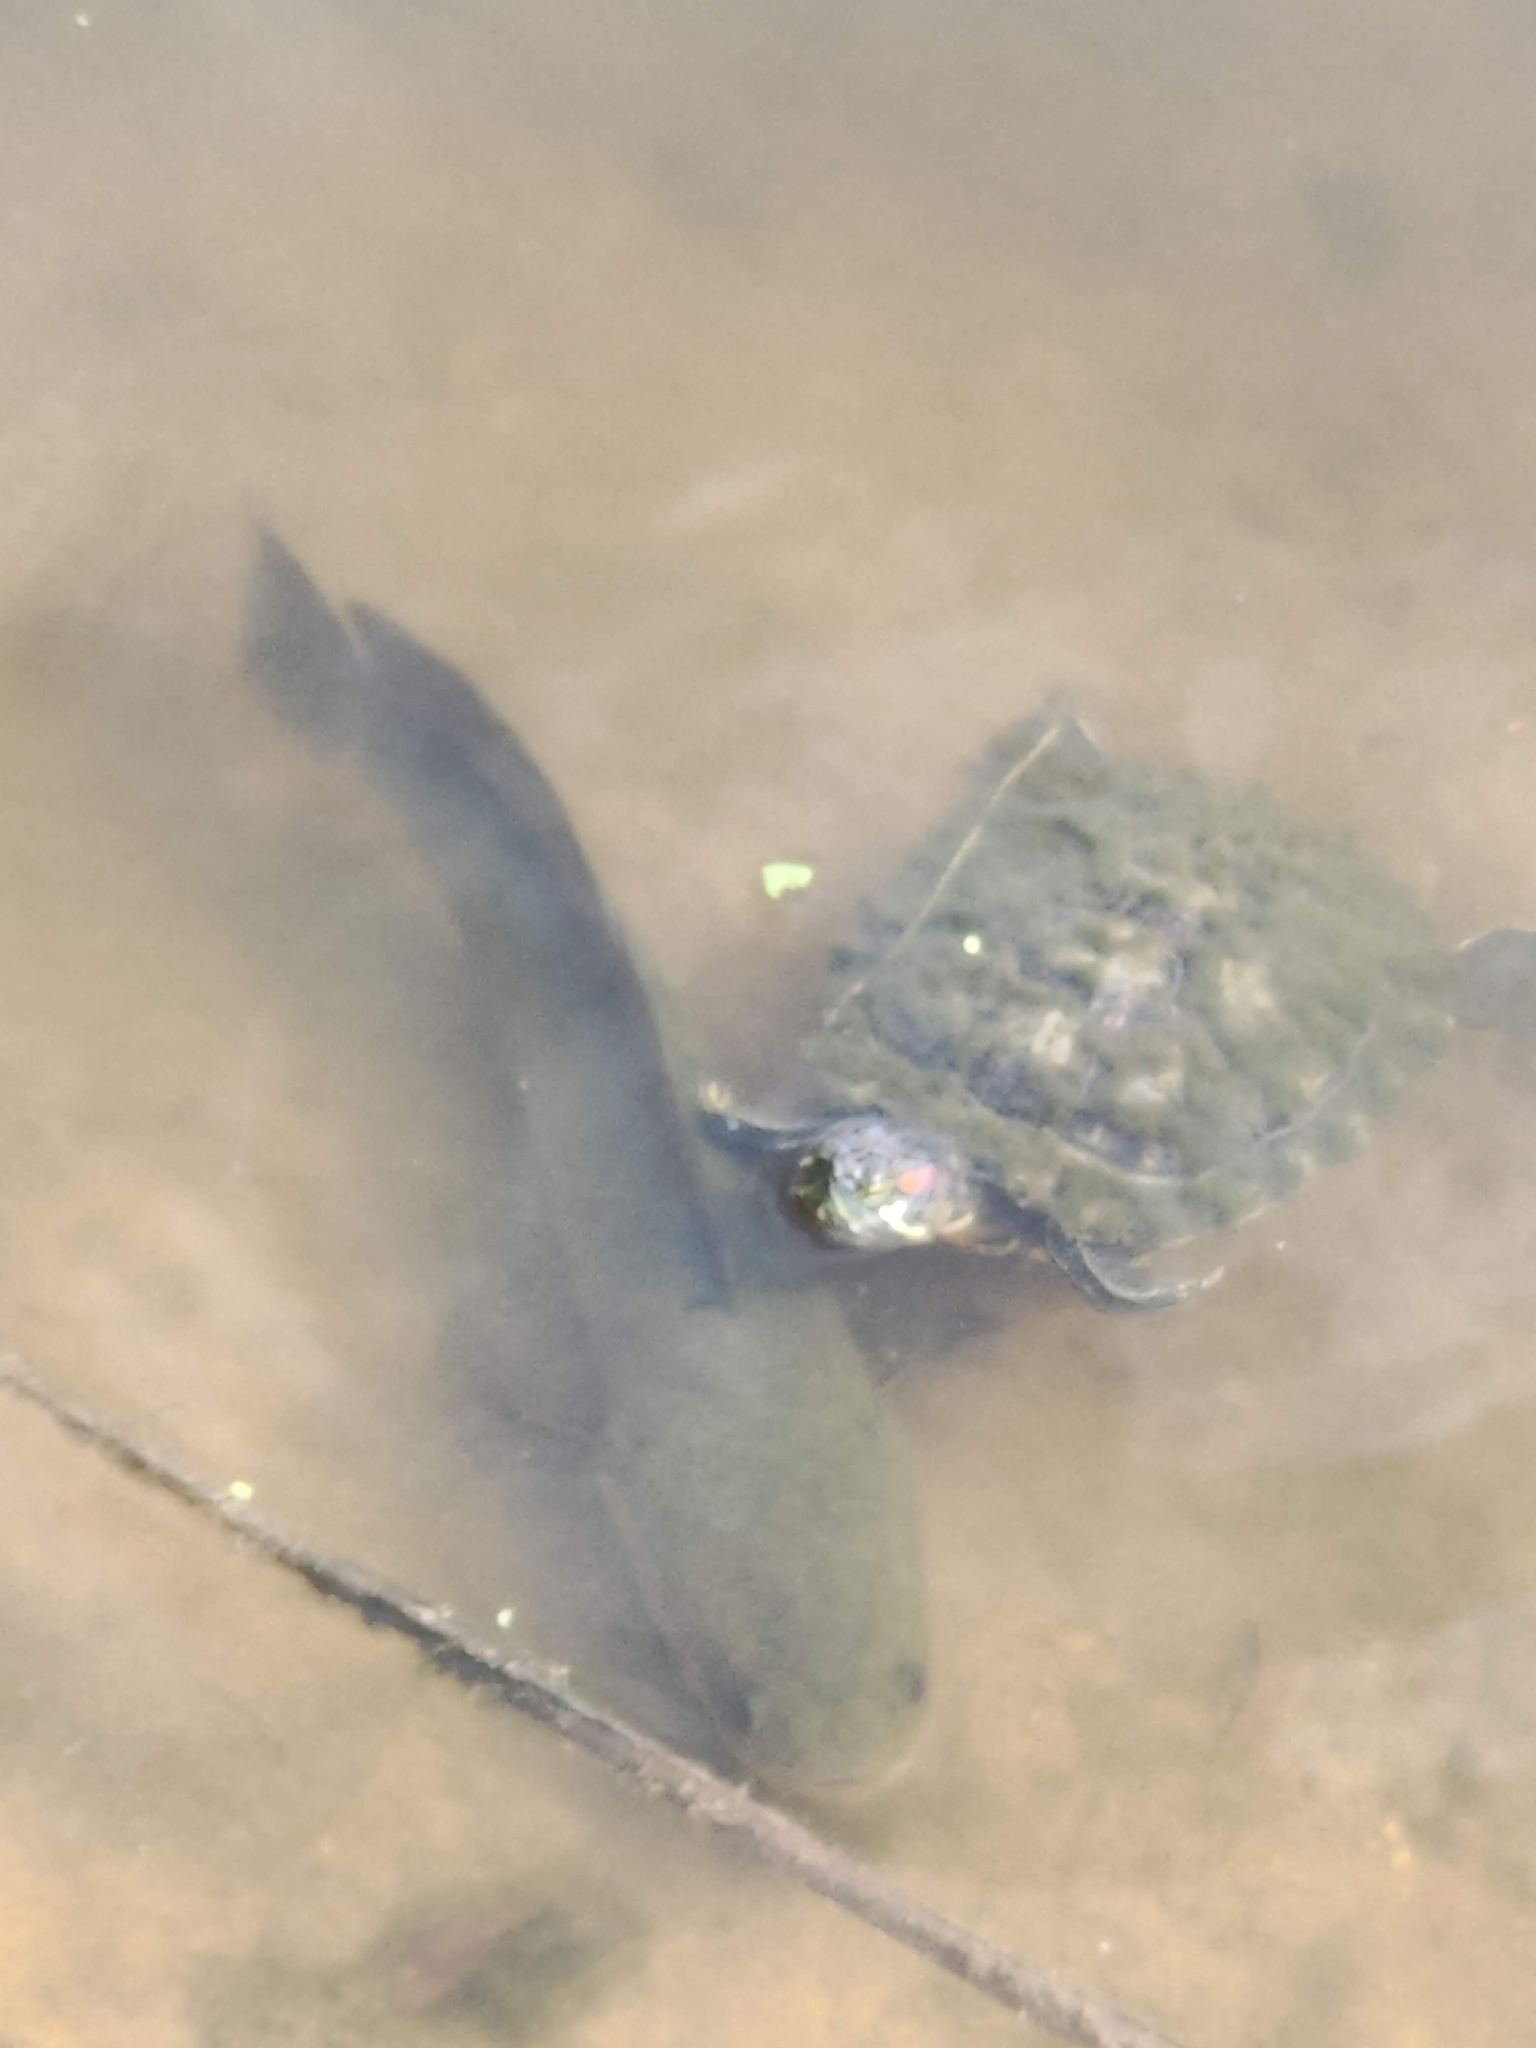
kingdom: Animalia
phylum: Chordata
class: Testudines
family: Emydidae
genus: Trachemys
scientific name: Trachemys scripta
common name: Slider
